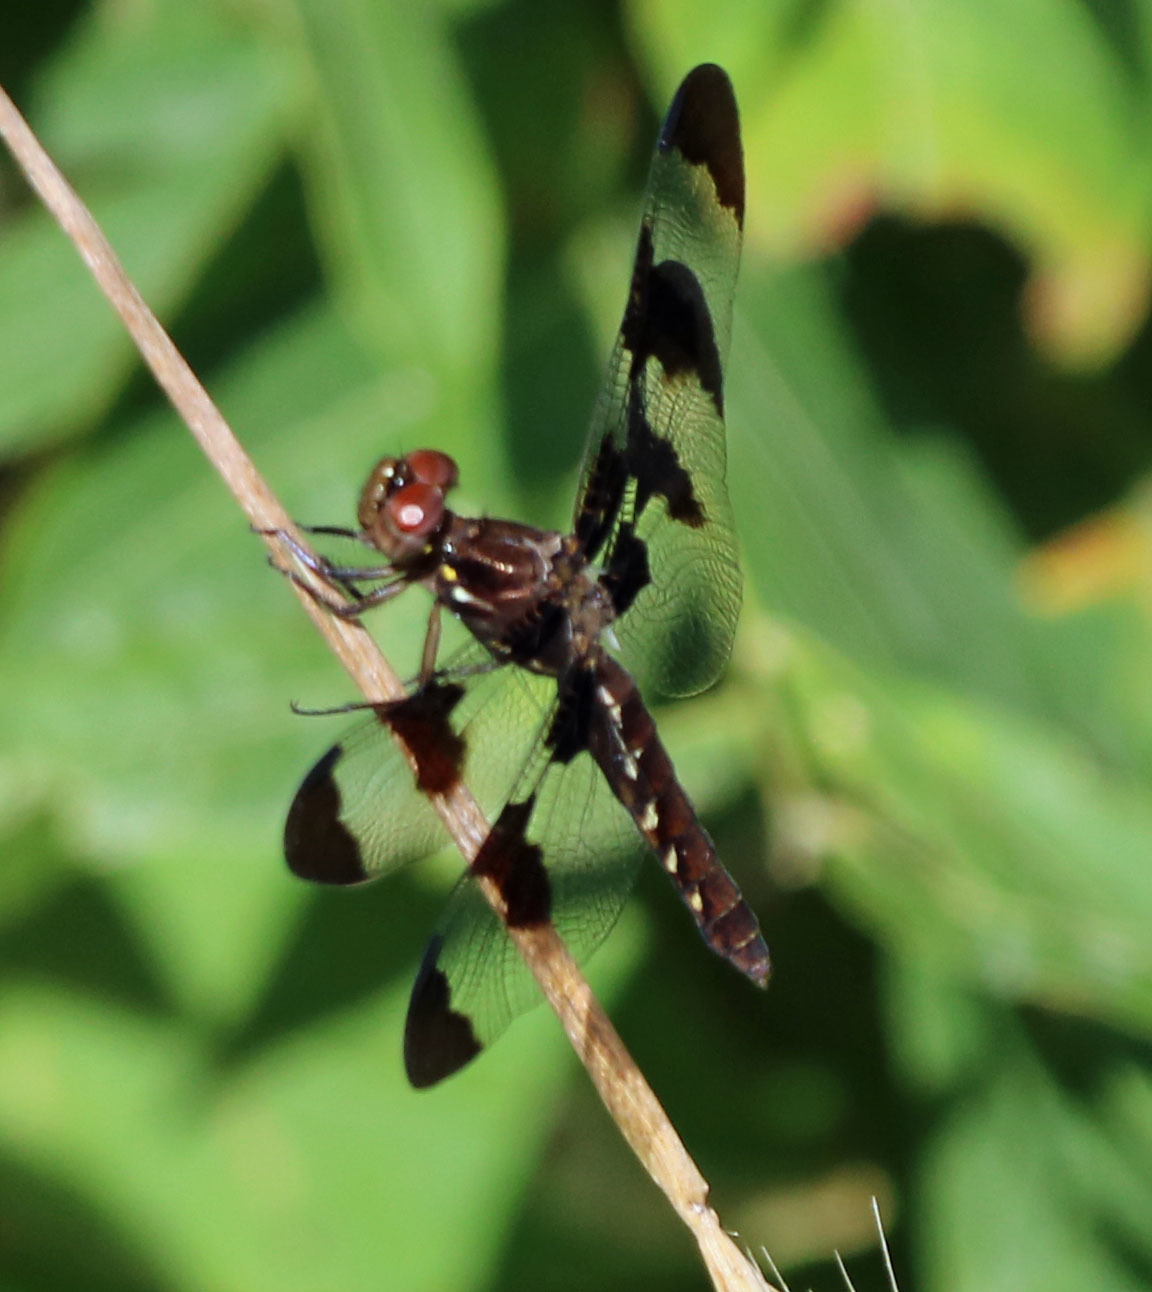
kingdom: Animalia
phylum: Arthropoda
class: Insecta
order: Odonata
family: Libellulidae
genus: Plathemis
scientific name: Plathemis lydia
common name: Common whitetail
